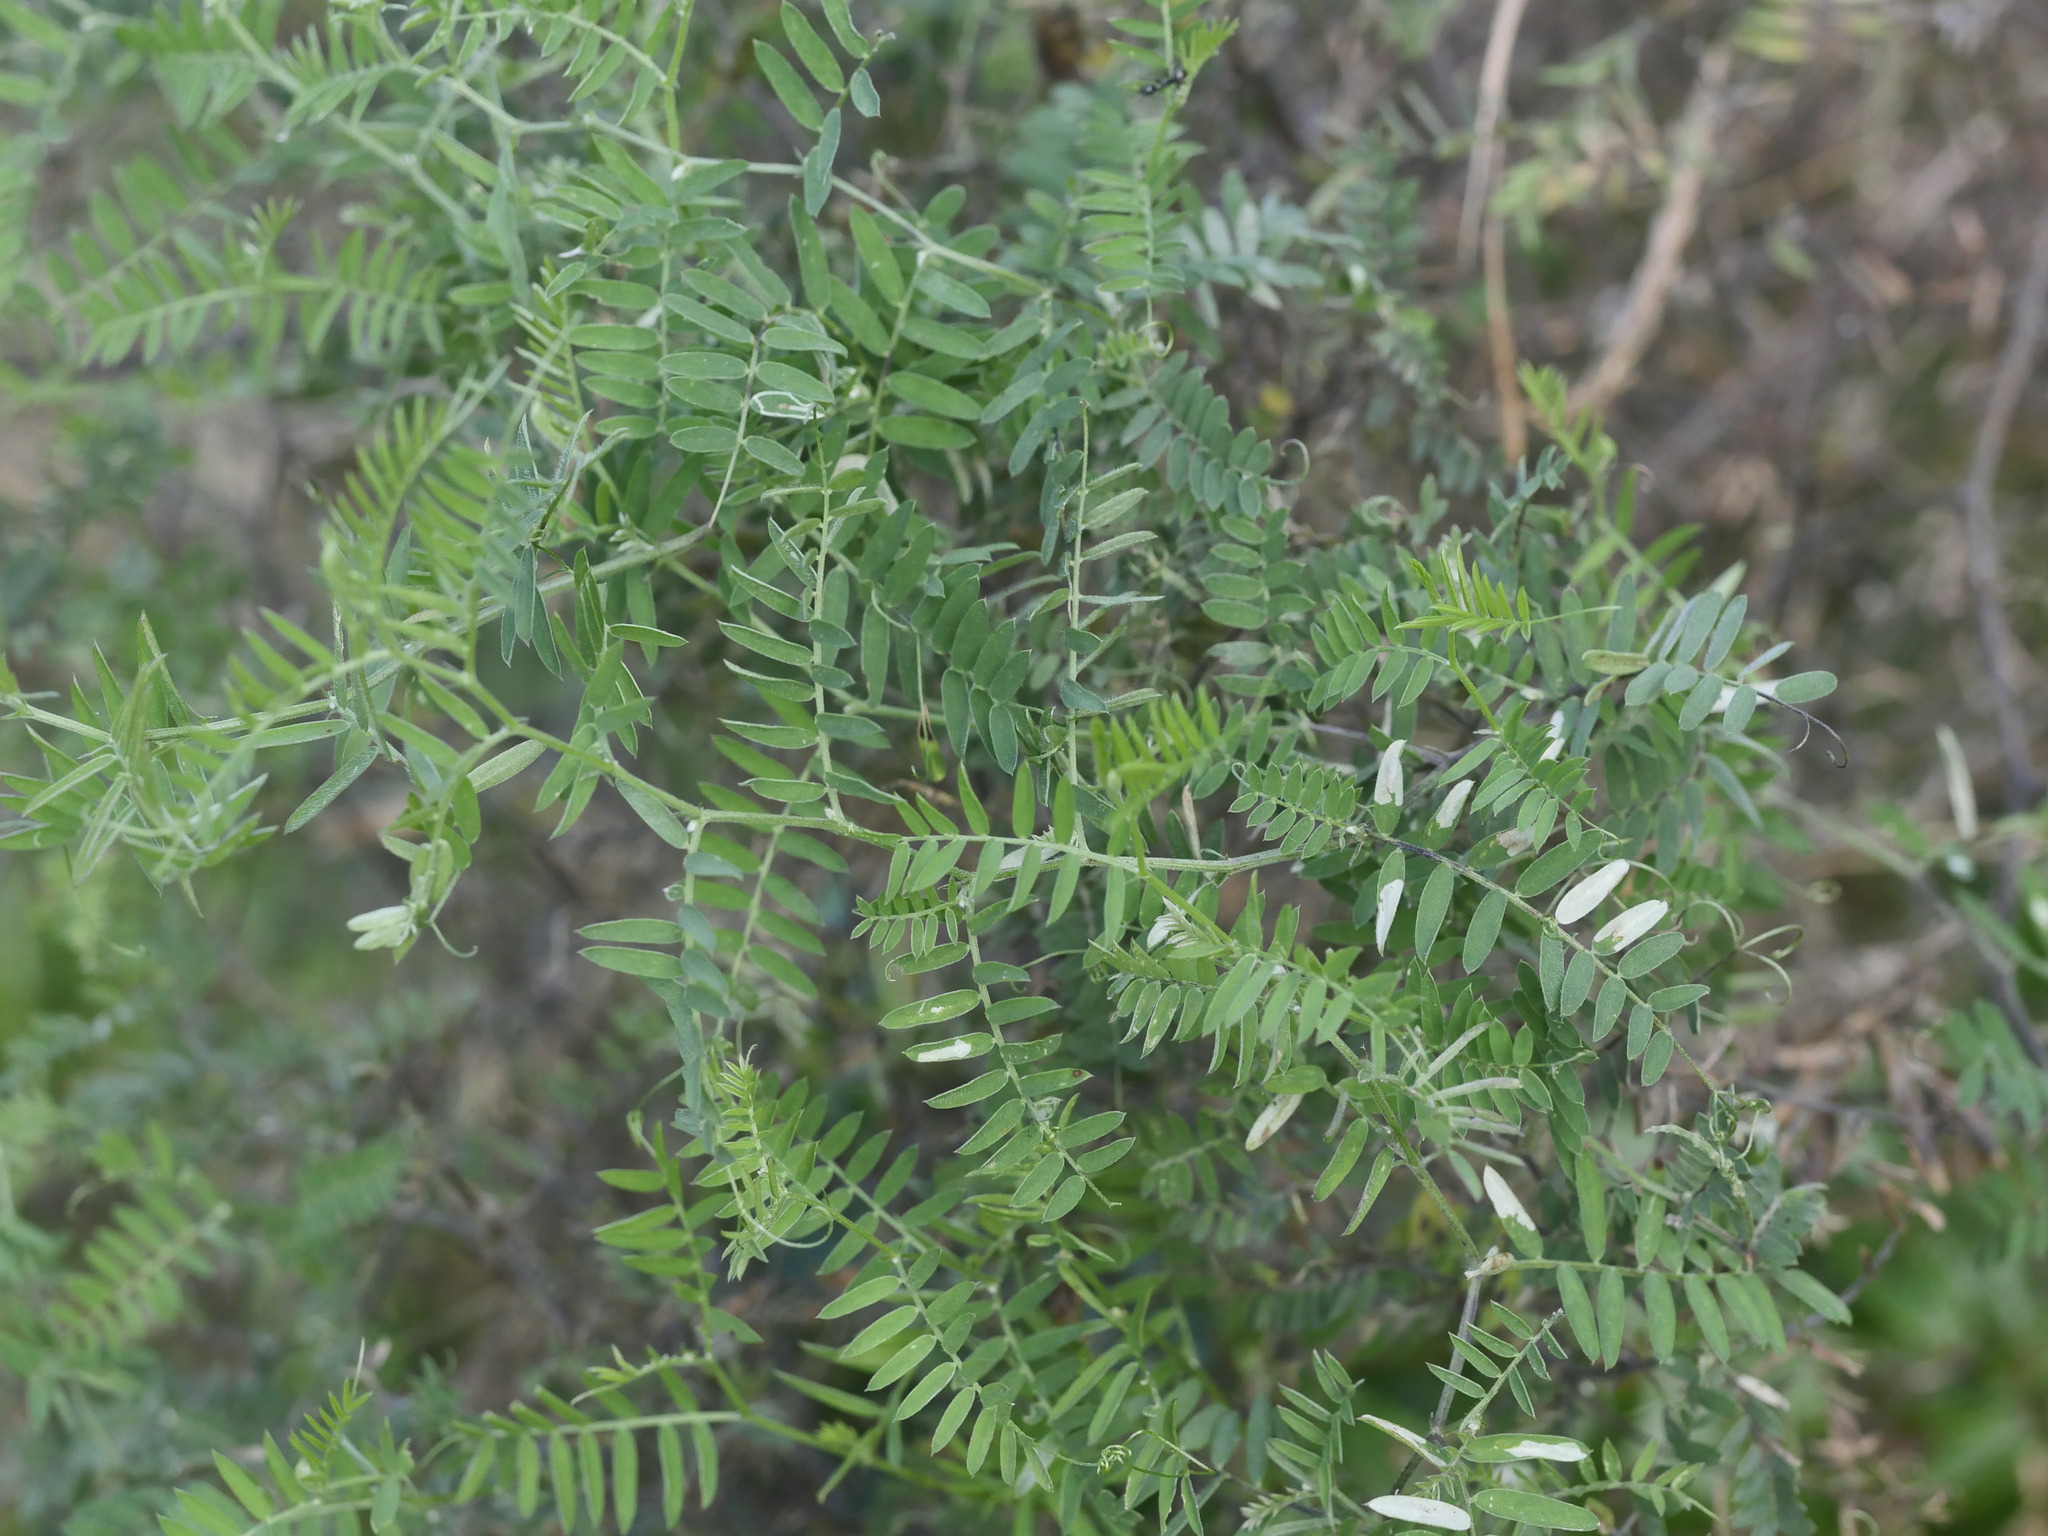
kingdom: Plantae
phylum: Tracheophyta
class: Magnoliopsida
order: Fabales
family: Fabaceae
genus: Vicia
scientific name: Vicia cracca
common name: Bird vetch
